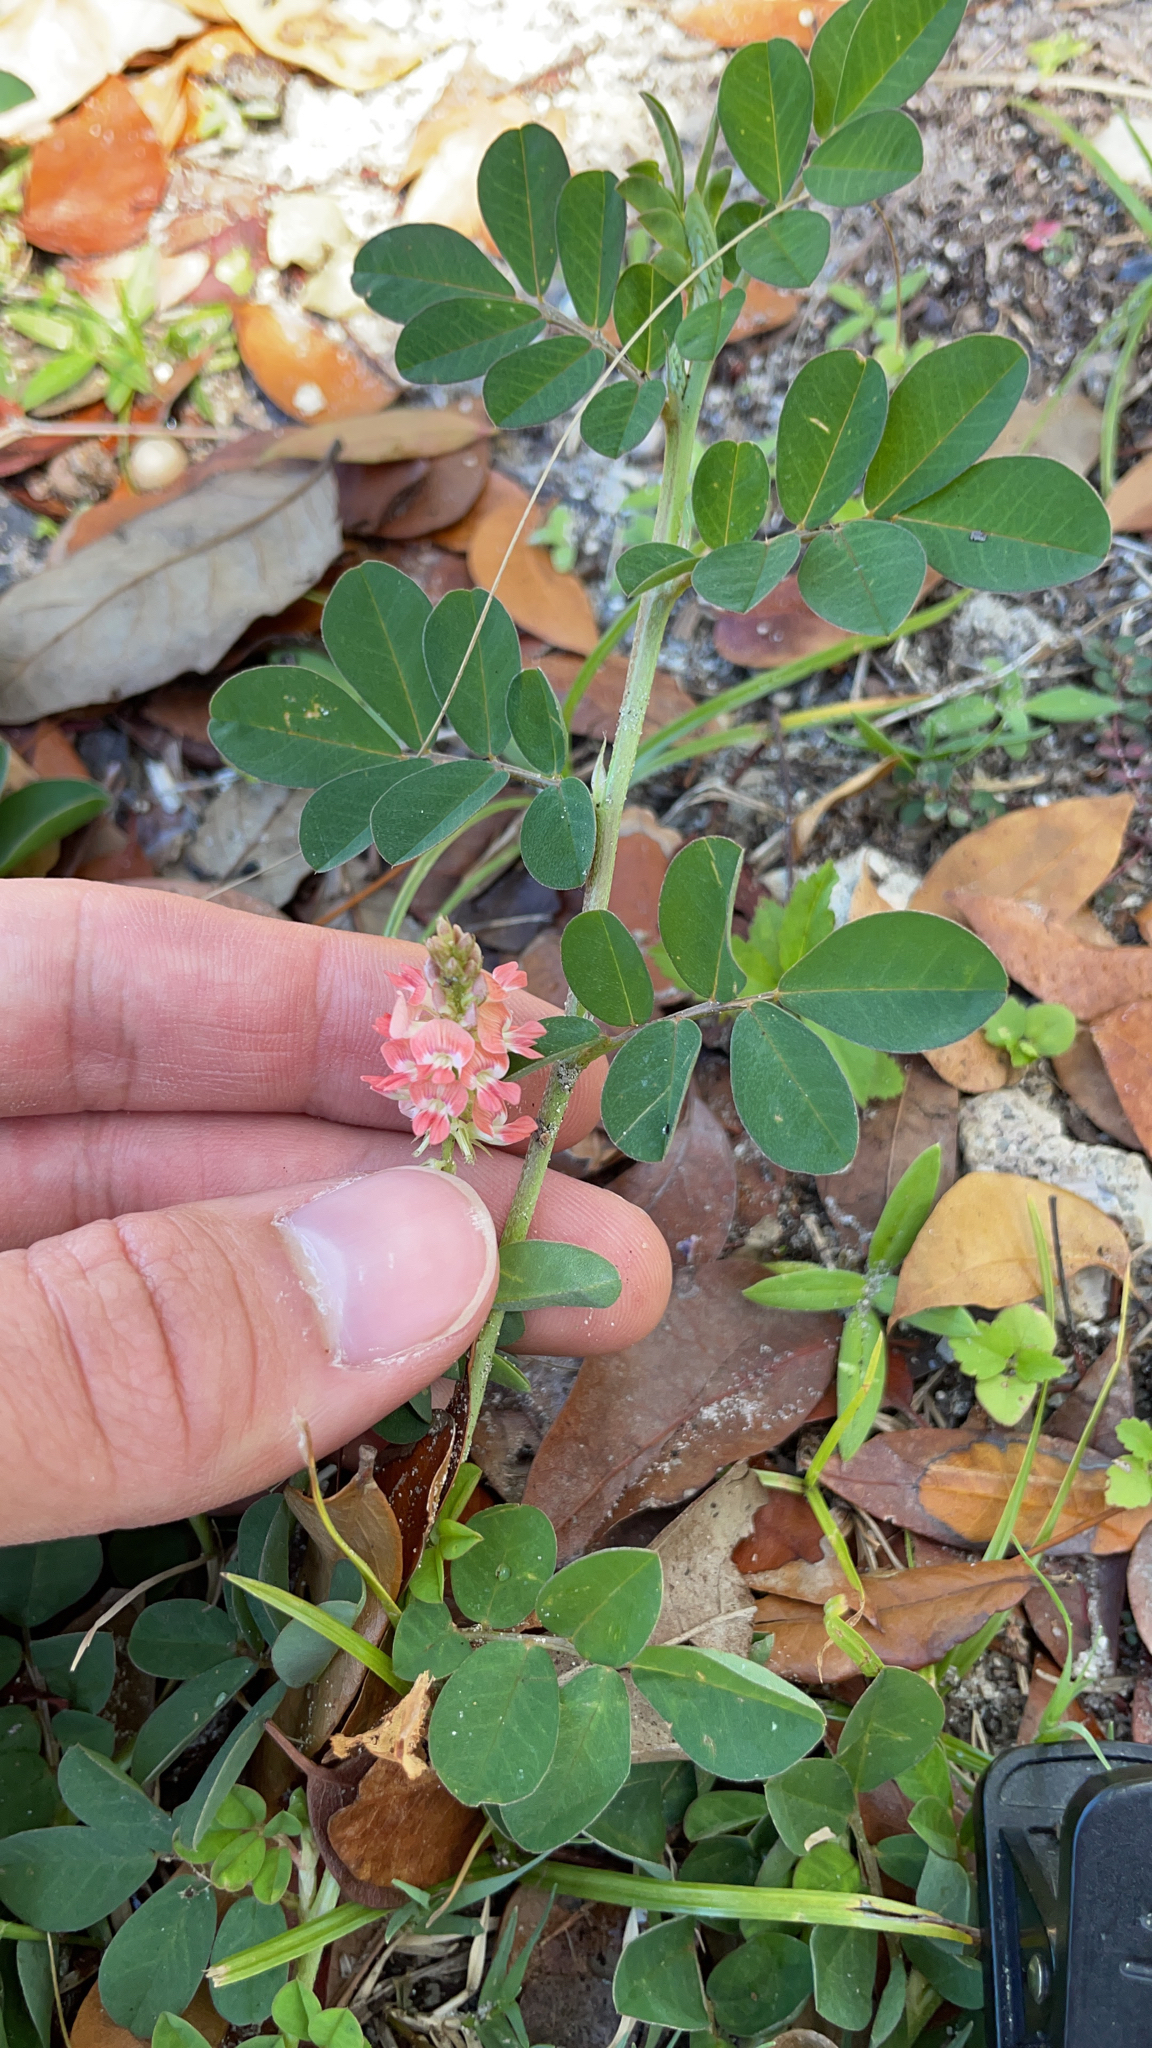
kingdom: Plantae
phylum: Tracheophyta
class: Magnoliopsida
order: Fabales
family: Fabaceae
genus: Indigofera
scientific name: Indigofera spicata
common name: Creeping indigo
